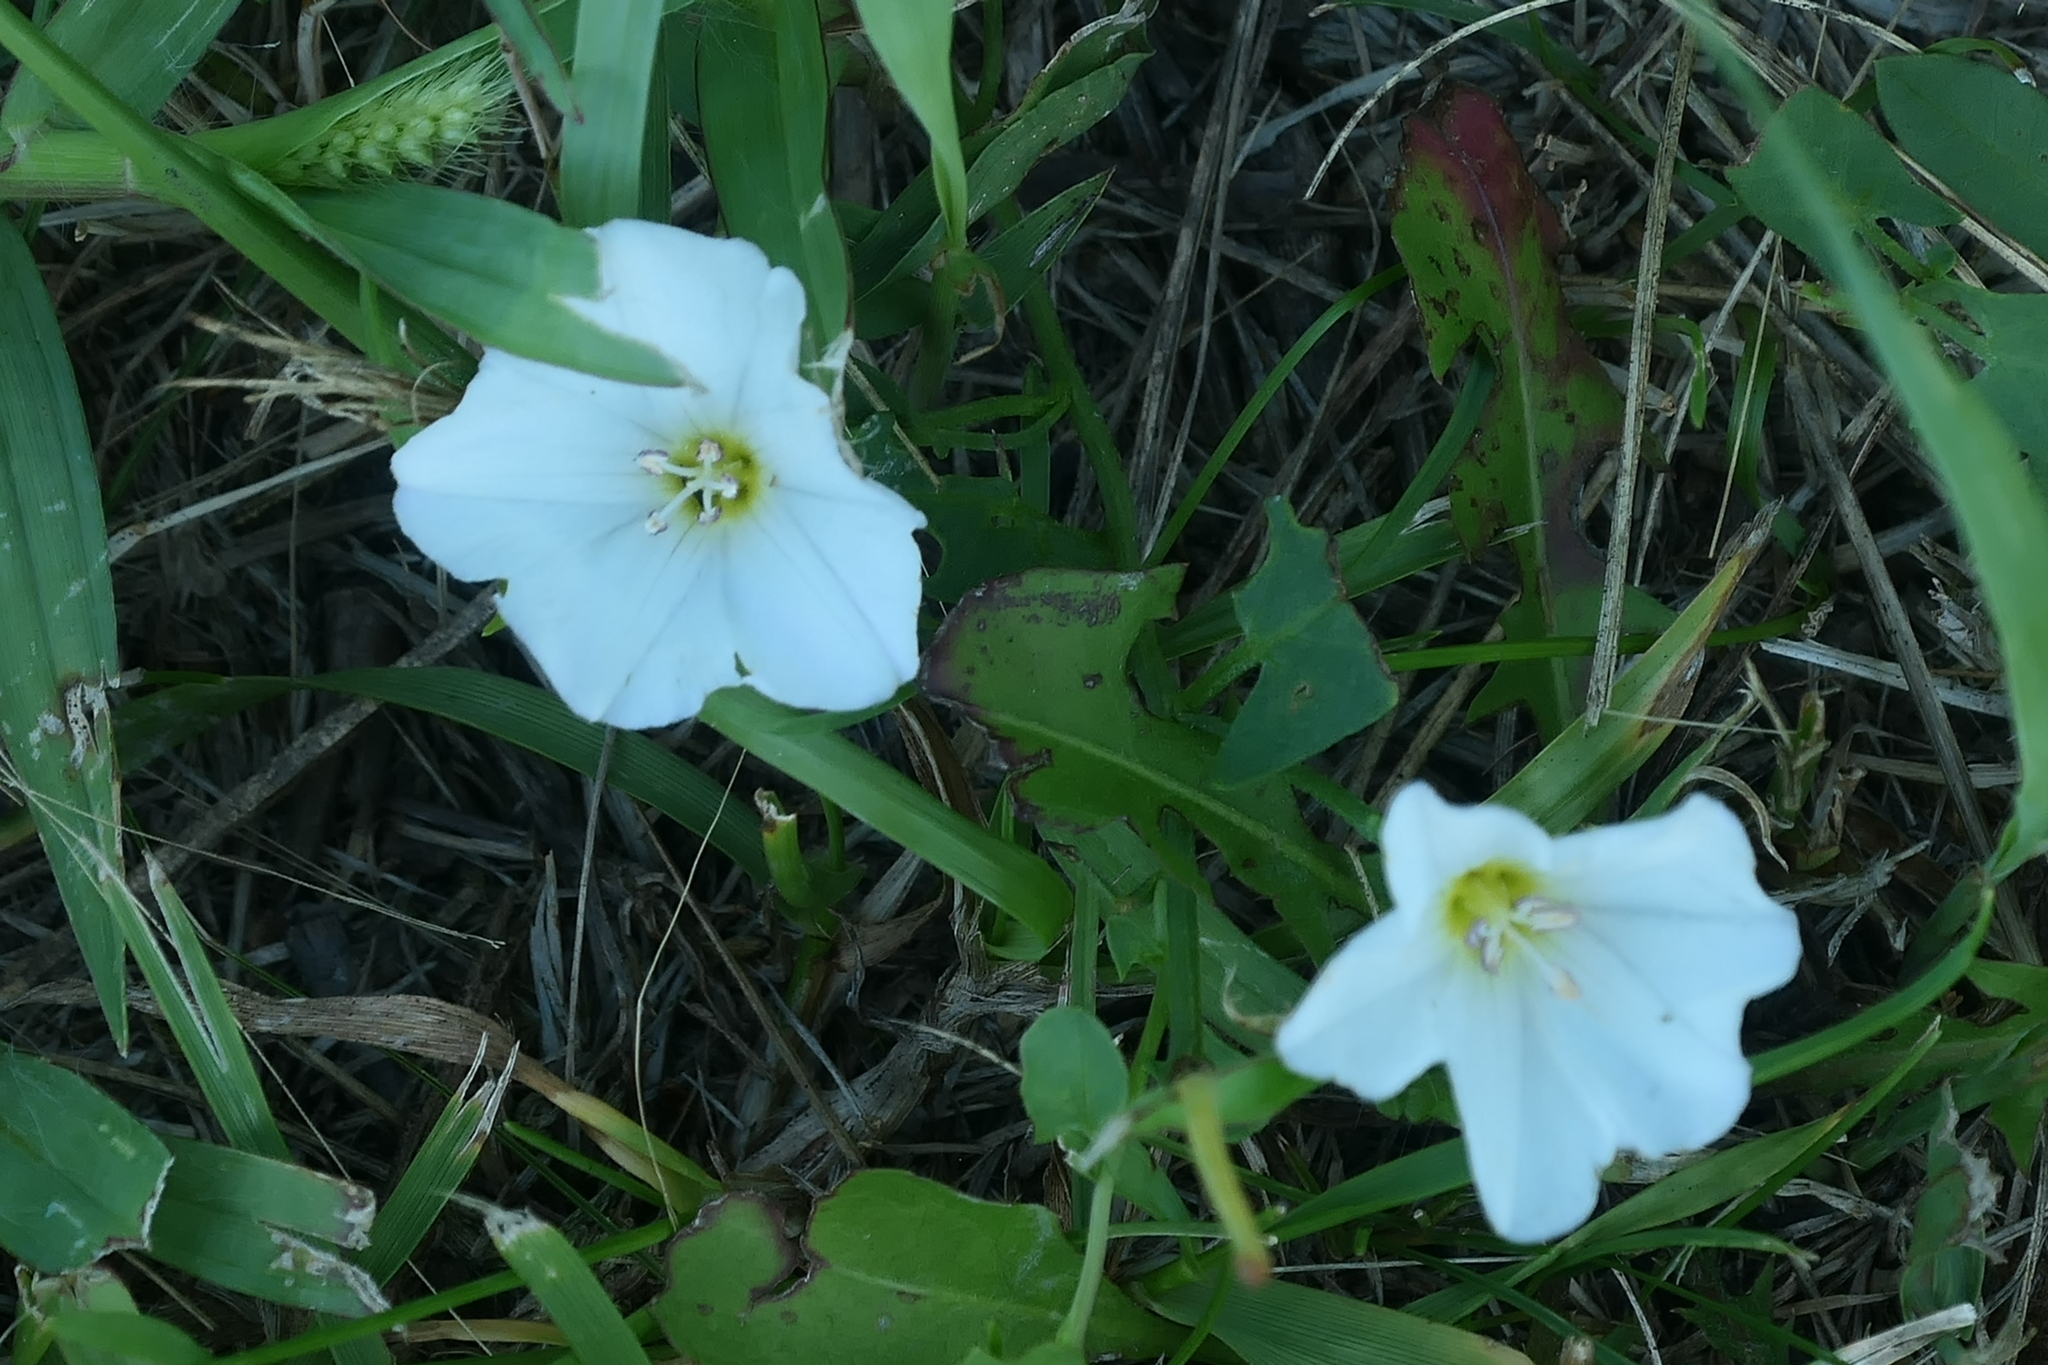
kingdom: Plantae
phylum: Tracheophyta
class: Magnoliopsida
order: Solanales
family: Convolvulaceae
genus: Convolvulus
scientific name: Convolvulus arvensis
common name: Field bindweed
